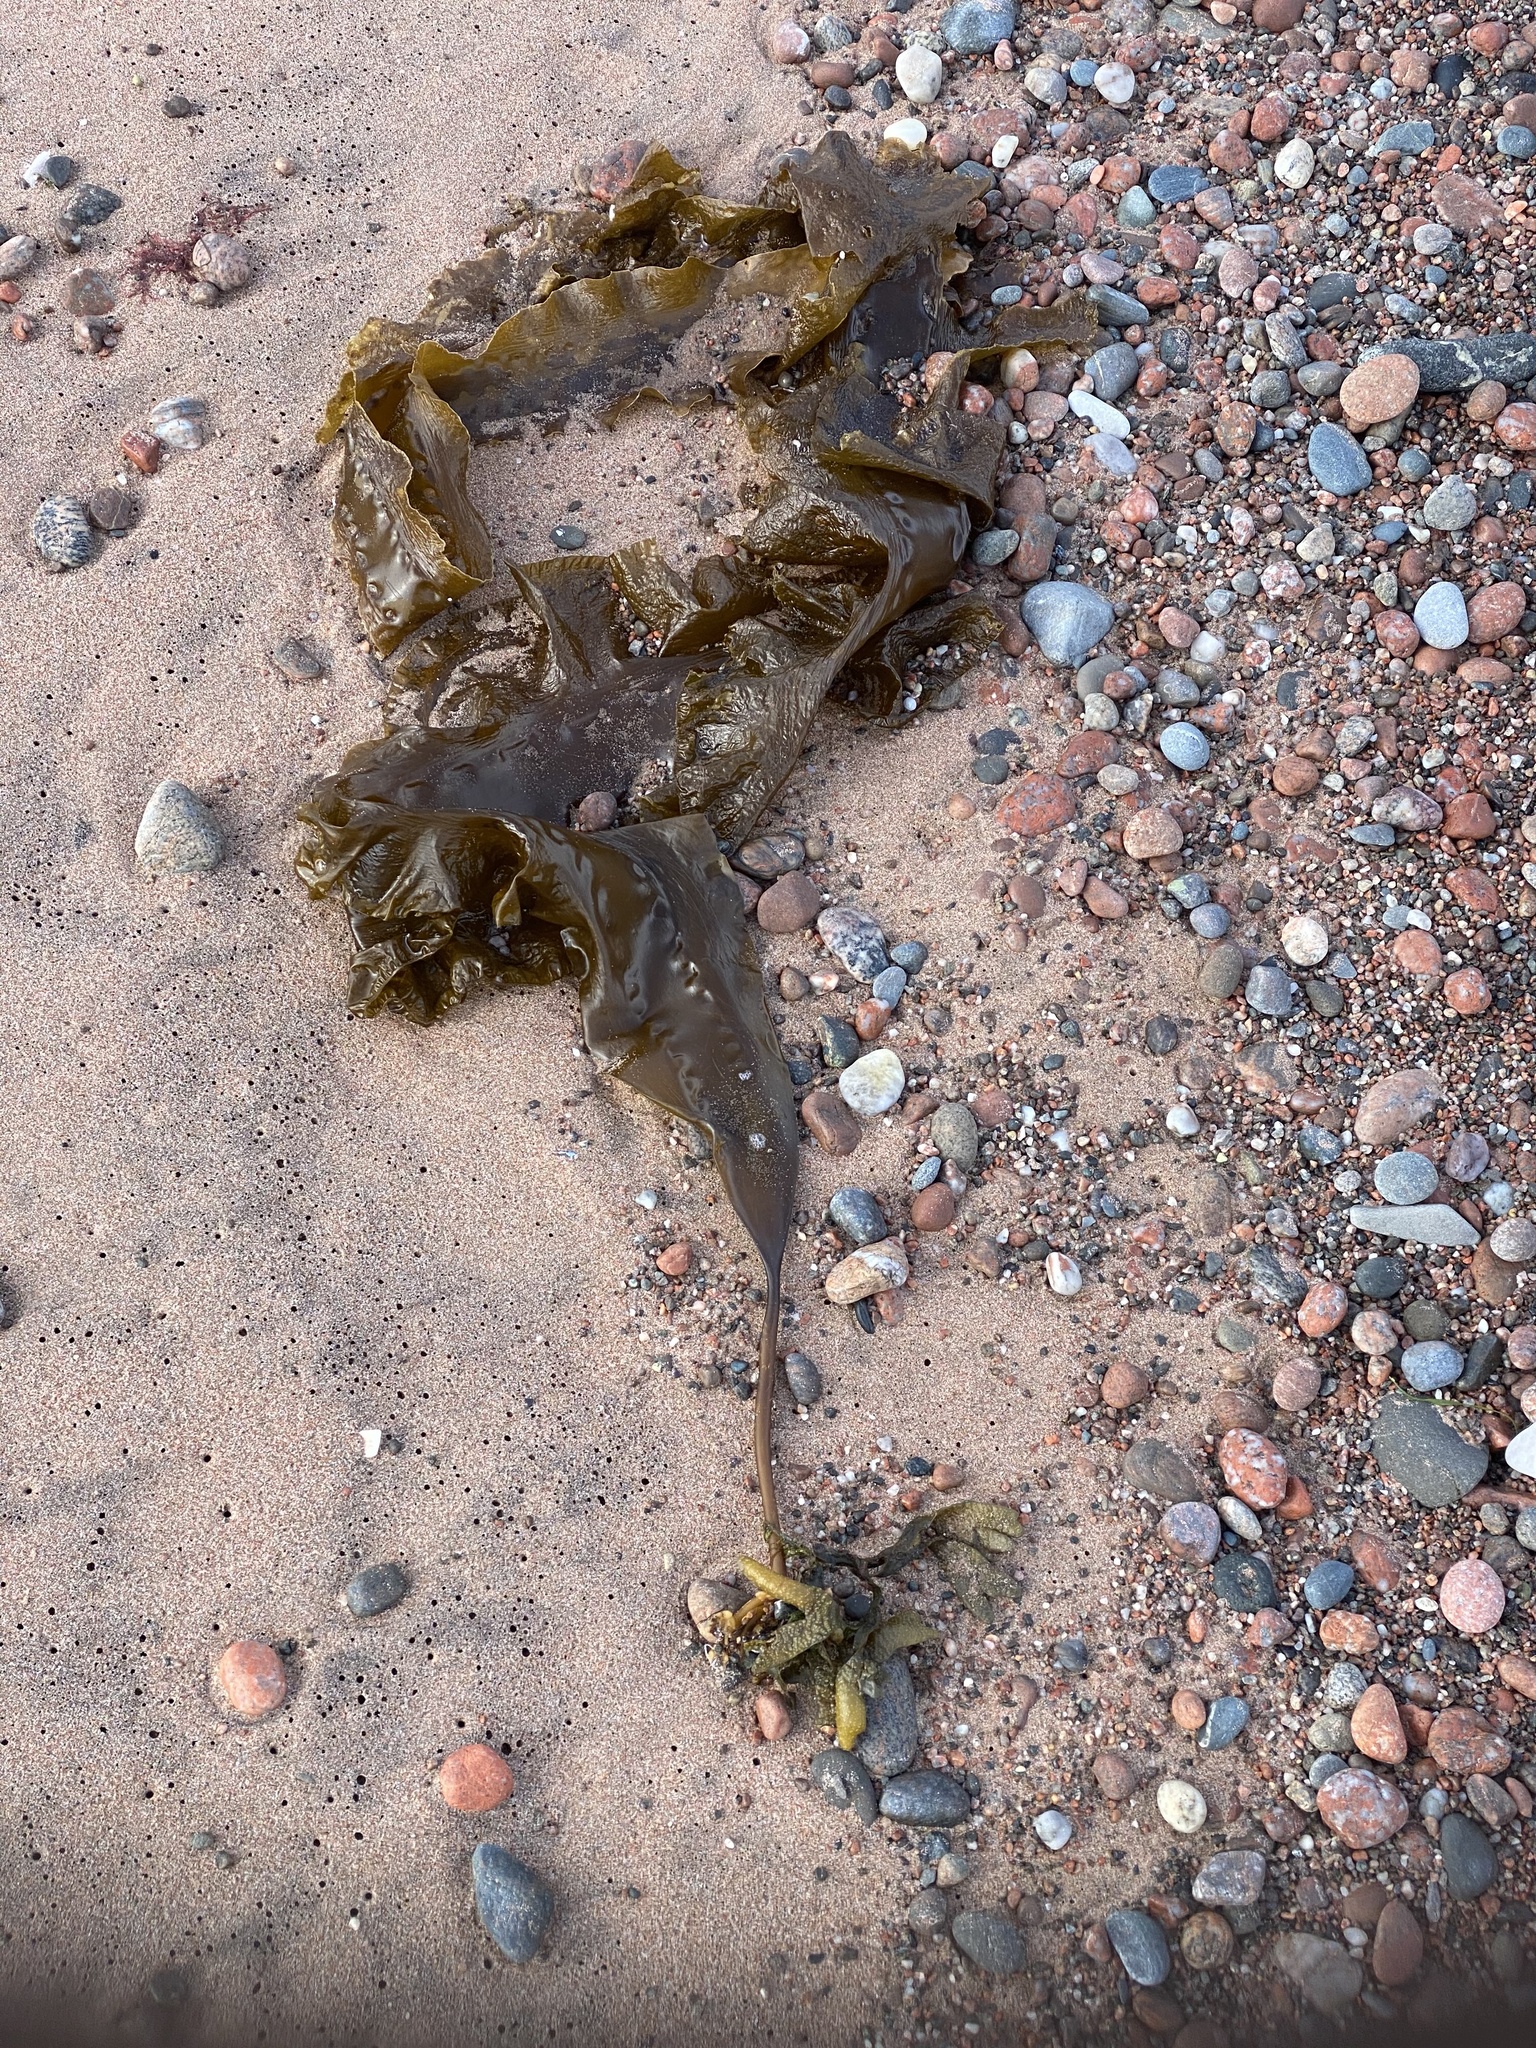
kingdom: Chromista
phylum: Ochrophyta
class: Phaeophyceae
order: Laminariales
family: Laminariaceae
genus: Saccharina
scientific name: Saccharina latissima
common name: Poor man's weather glass
